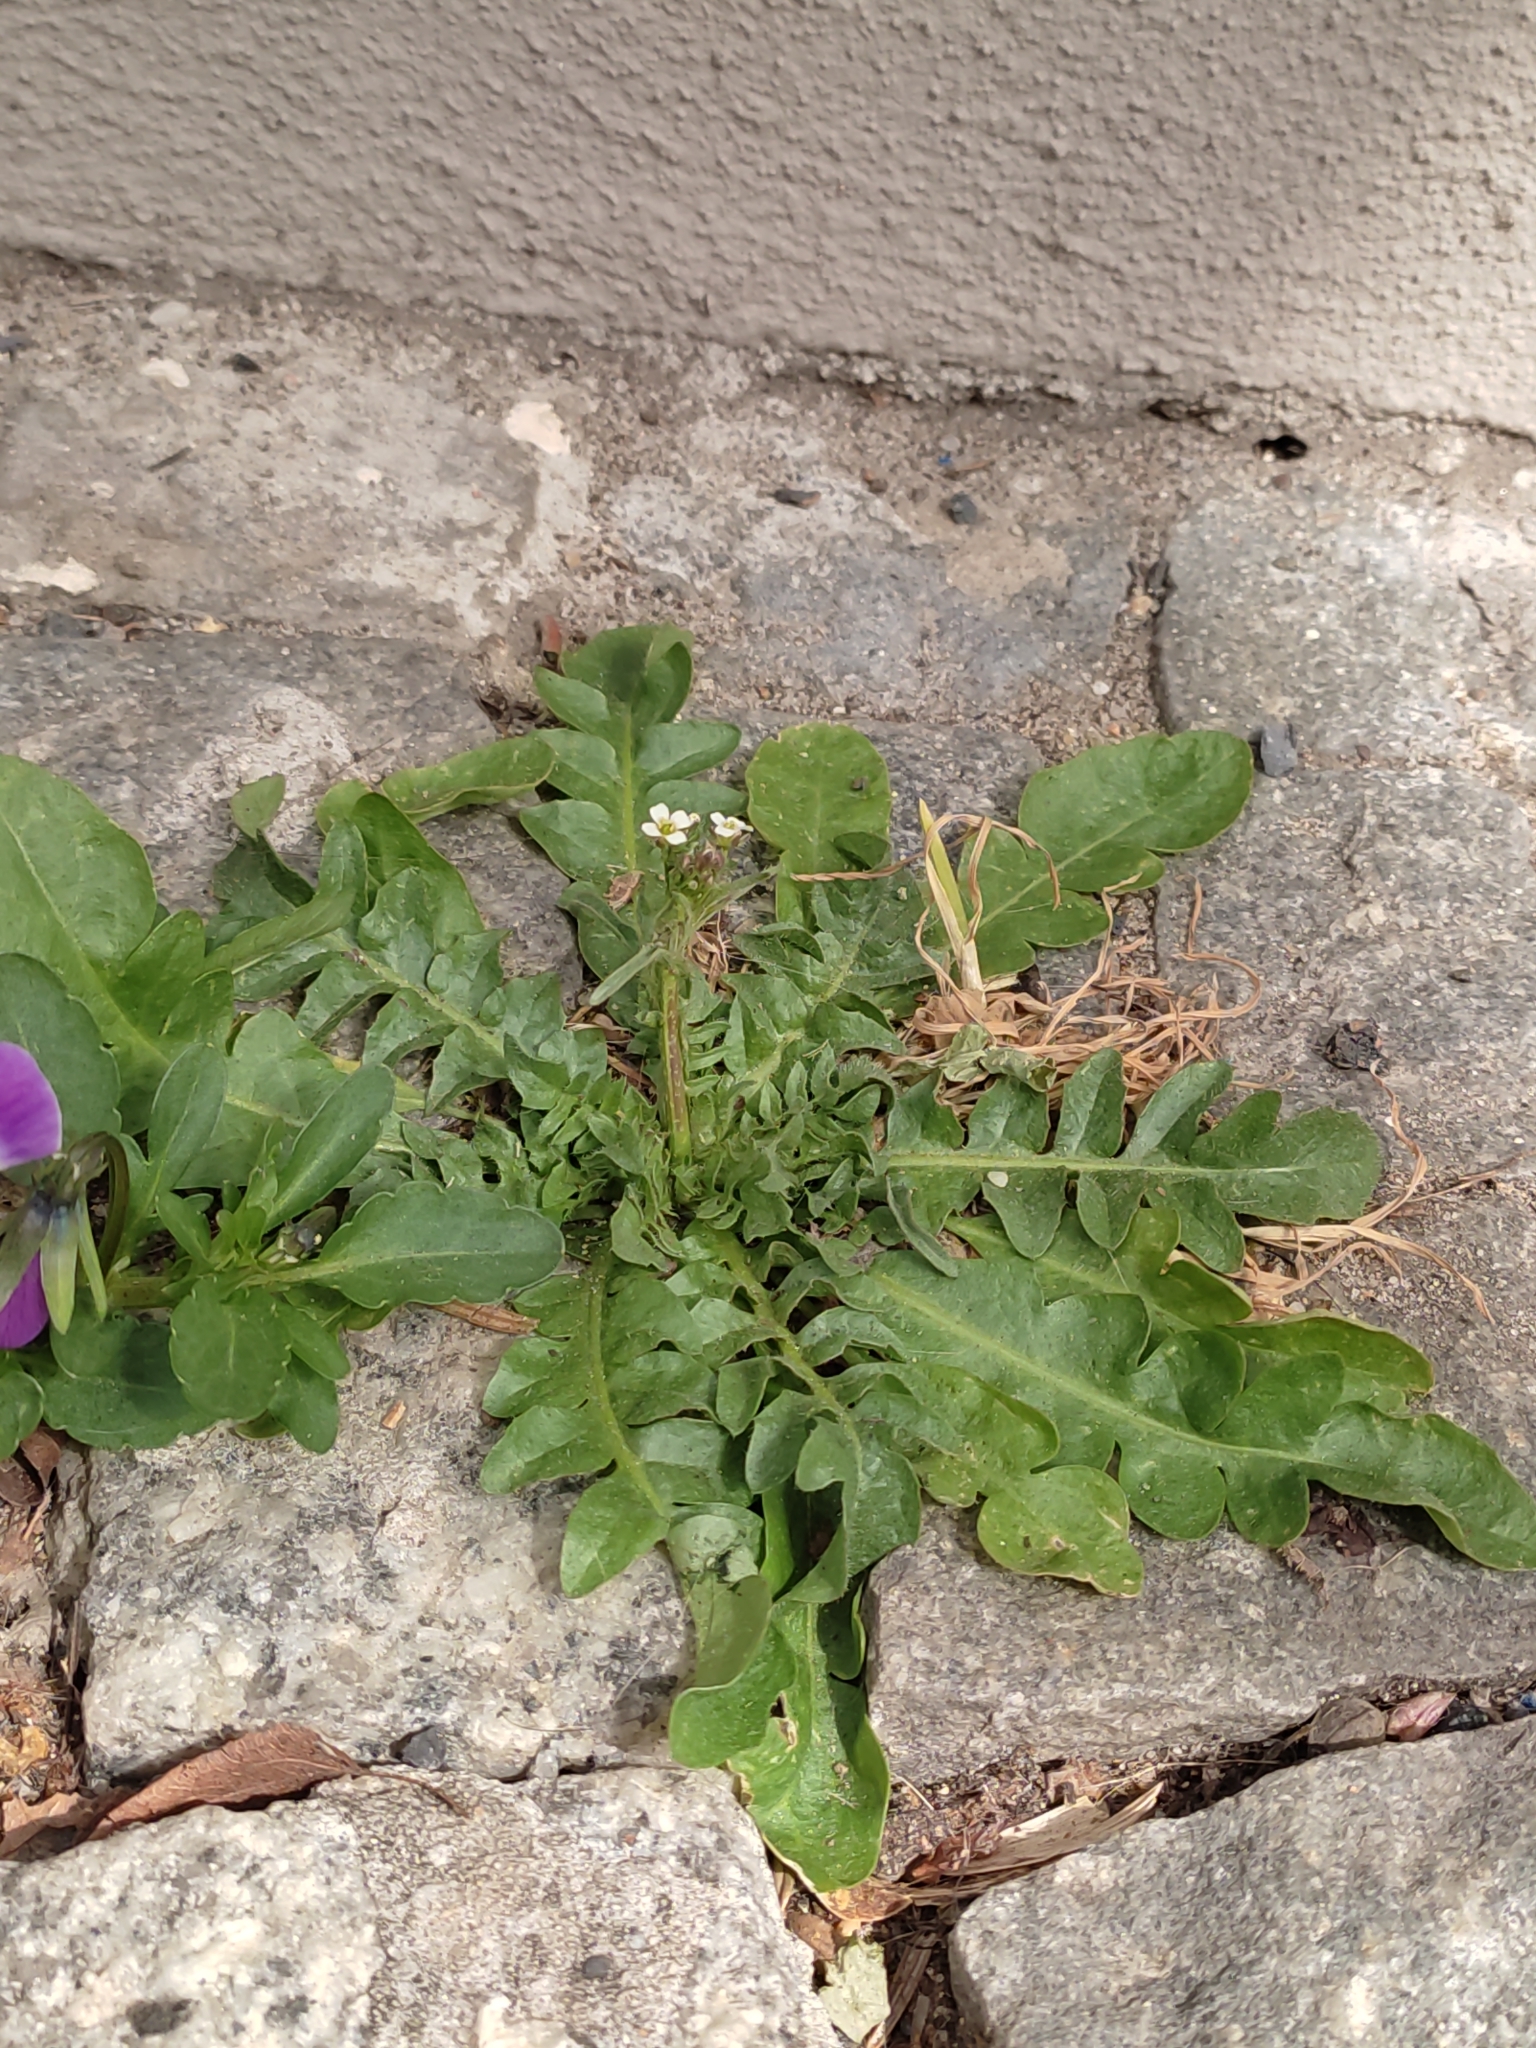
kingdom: Plantae
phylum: Tracheophyta
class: Magnoliopsida
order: Brassicales
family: Brassicaceae
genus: Capsella
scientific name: Capsella bursa-pastoris
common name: Shepherd's purse
